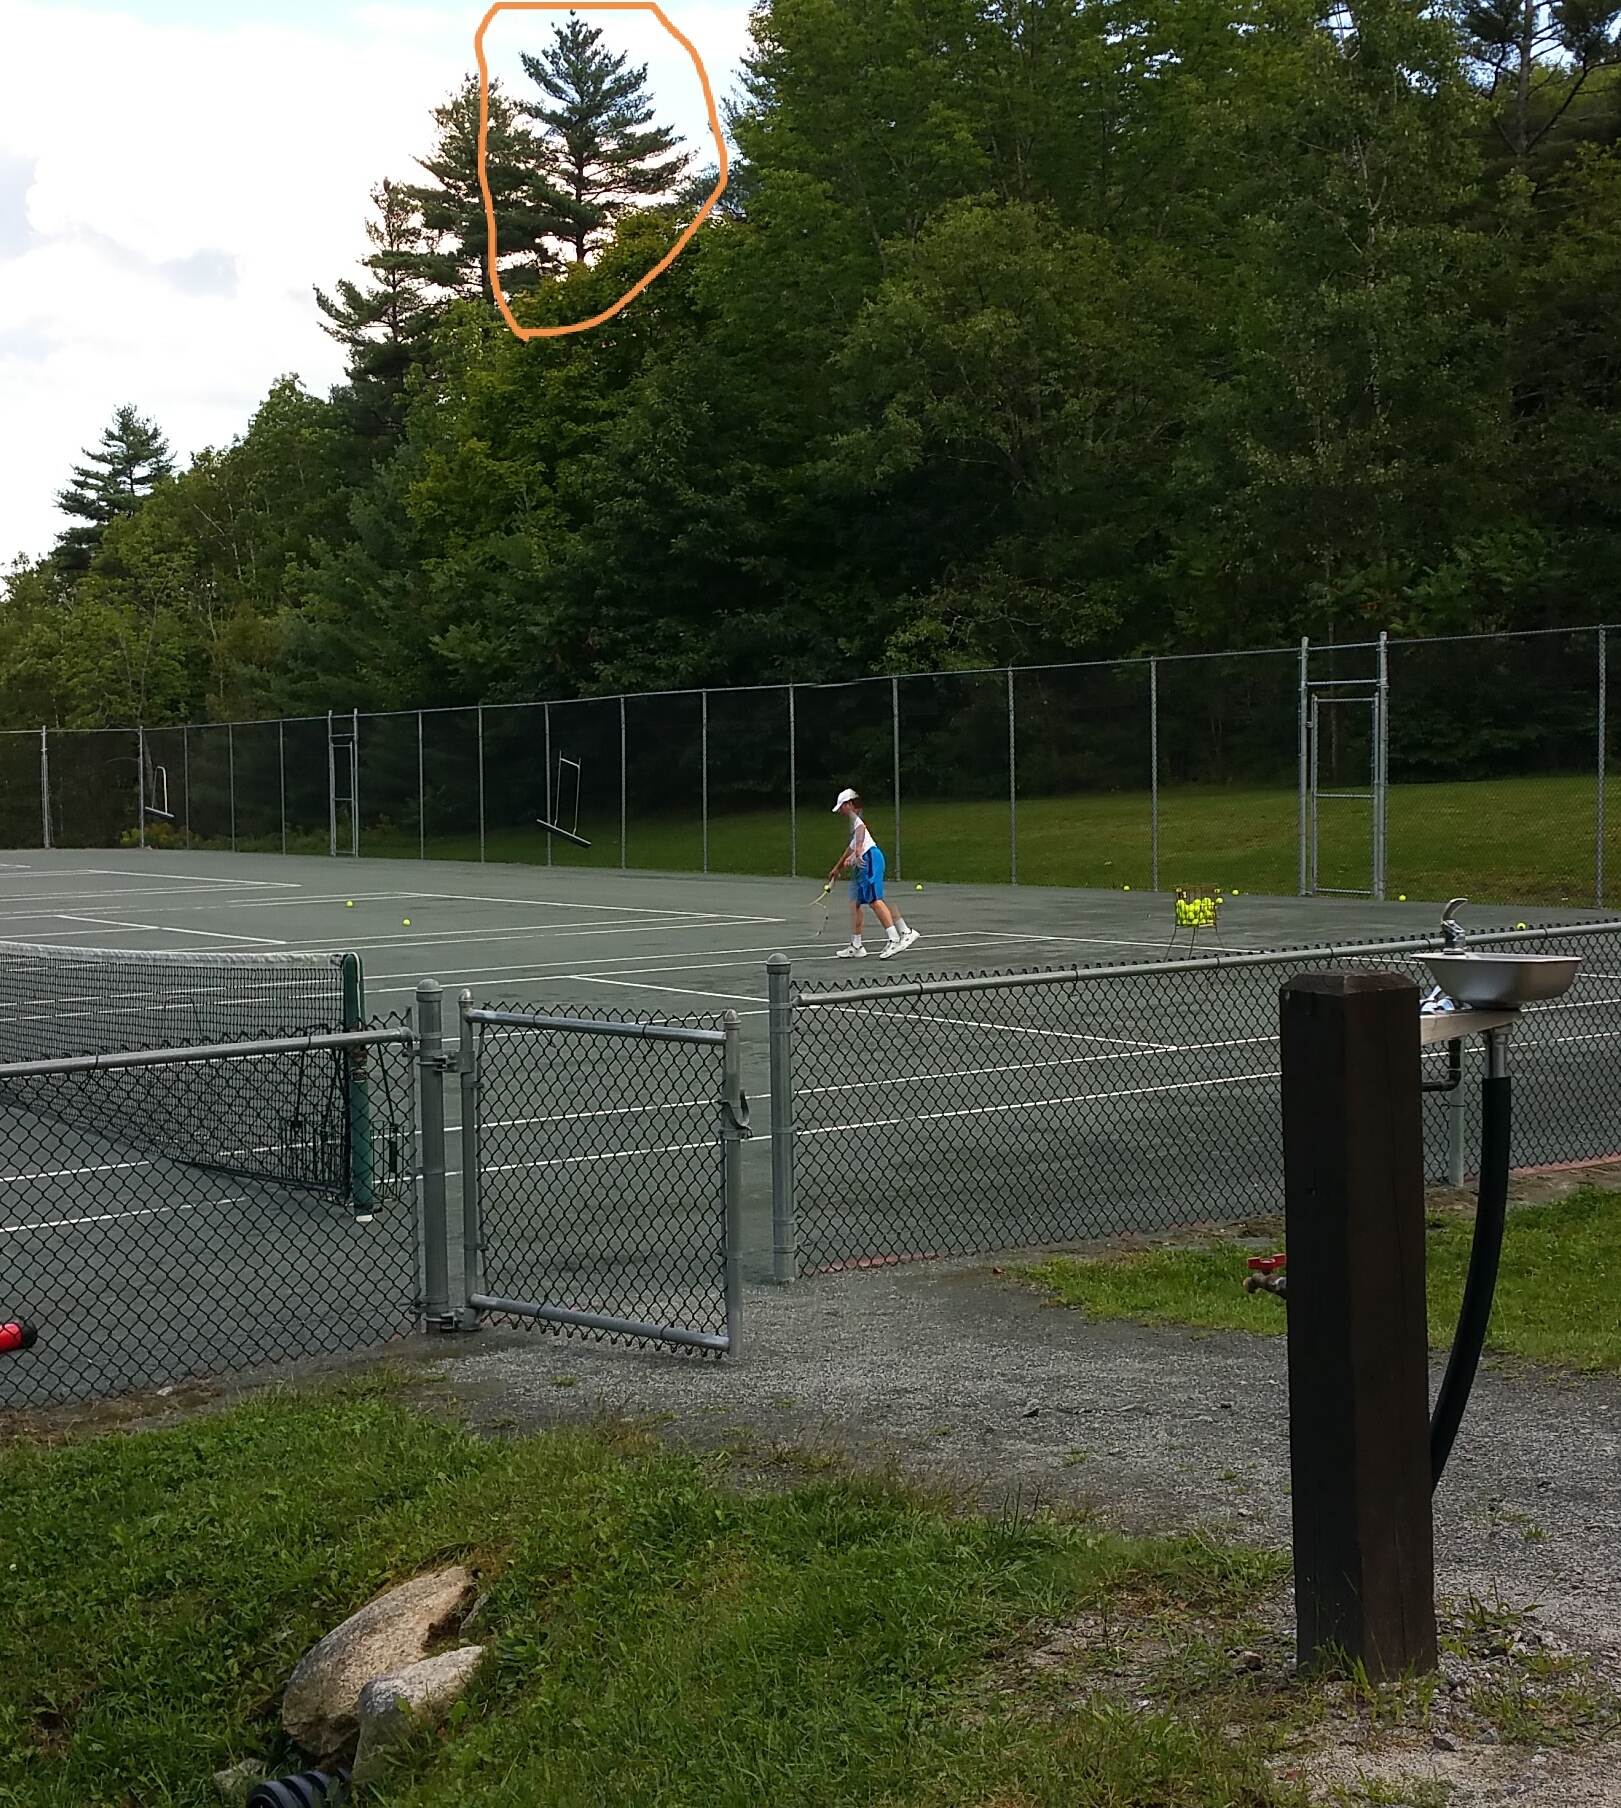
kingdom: Plantae
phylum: Tracheophyta
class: Pinopsida
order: Pinales
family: Pinaceae
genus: Pinus
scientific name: Pinus strobus
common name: Weymouth pine
